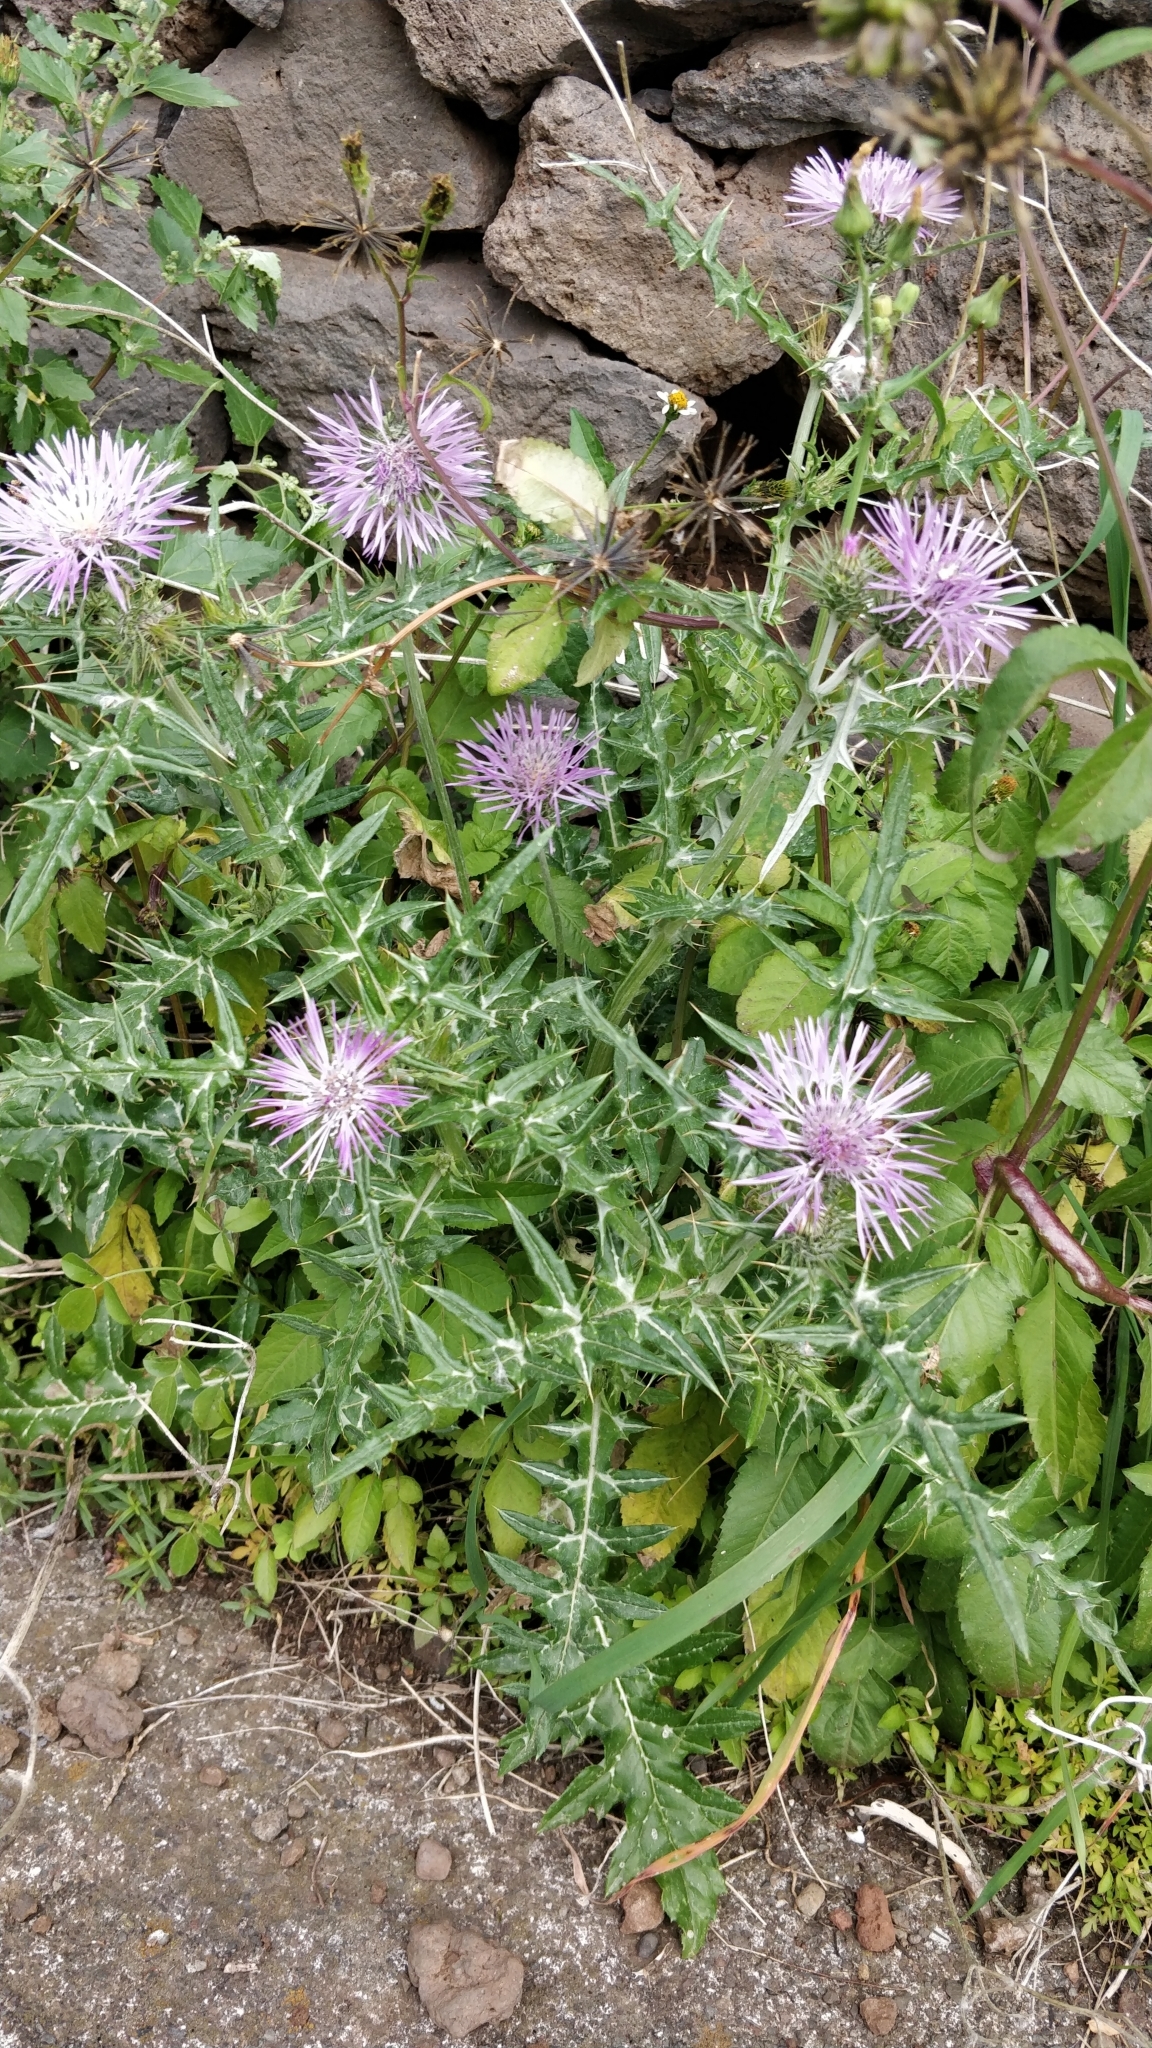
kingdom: Plantae
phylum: Tracheophyta
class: Magnoliopsida
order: Asterales
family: Asteraceae
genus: Galactites
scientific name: Galactites tomentosa
